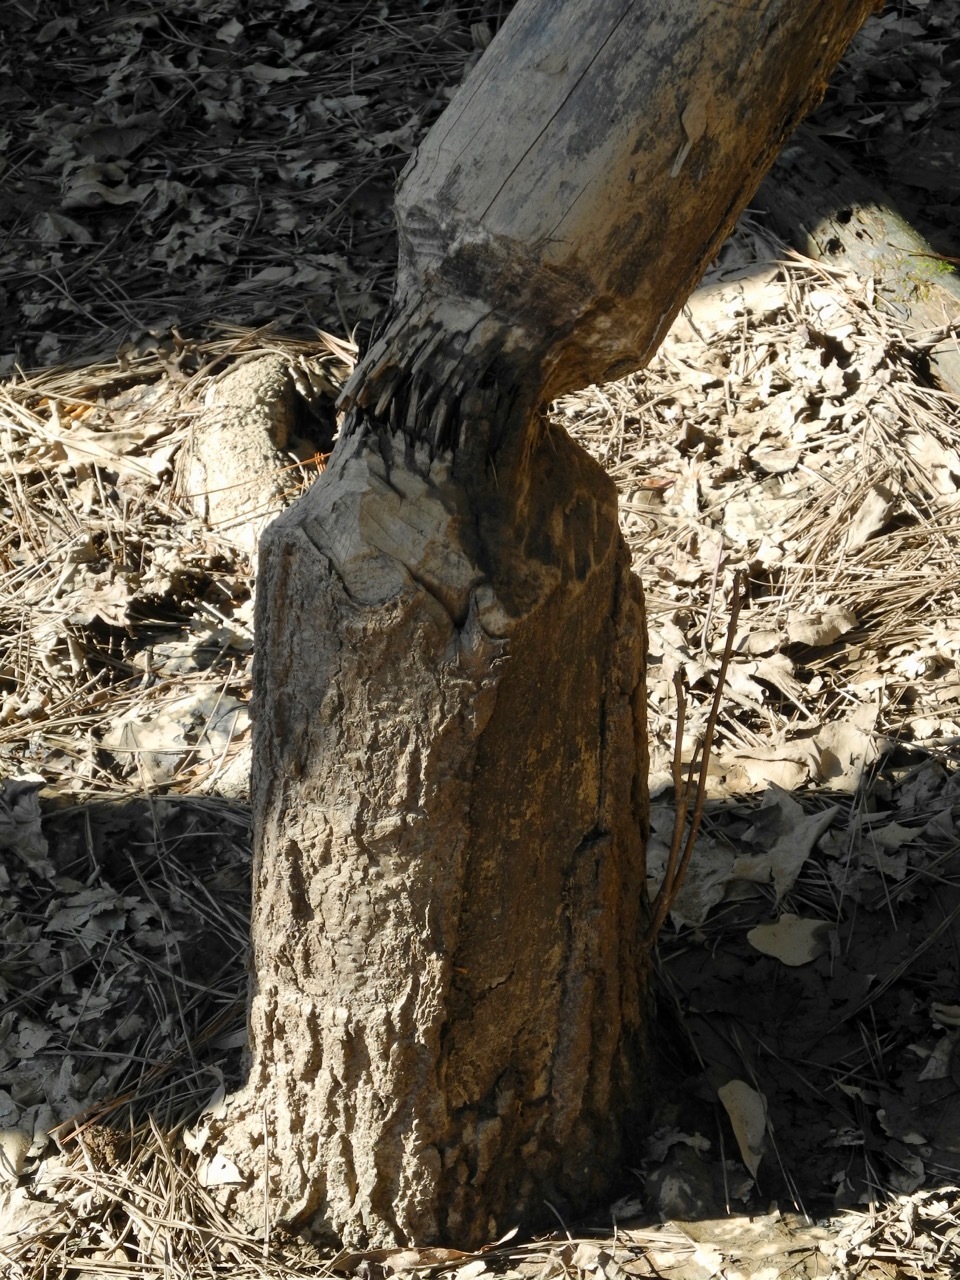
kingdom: Animalia
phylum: Chordata
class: Mammalia
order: Rodentia
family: Castoridae
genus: Castor
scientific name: Castor canadensis
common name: American beaver
